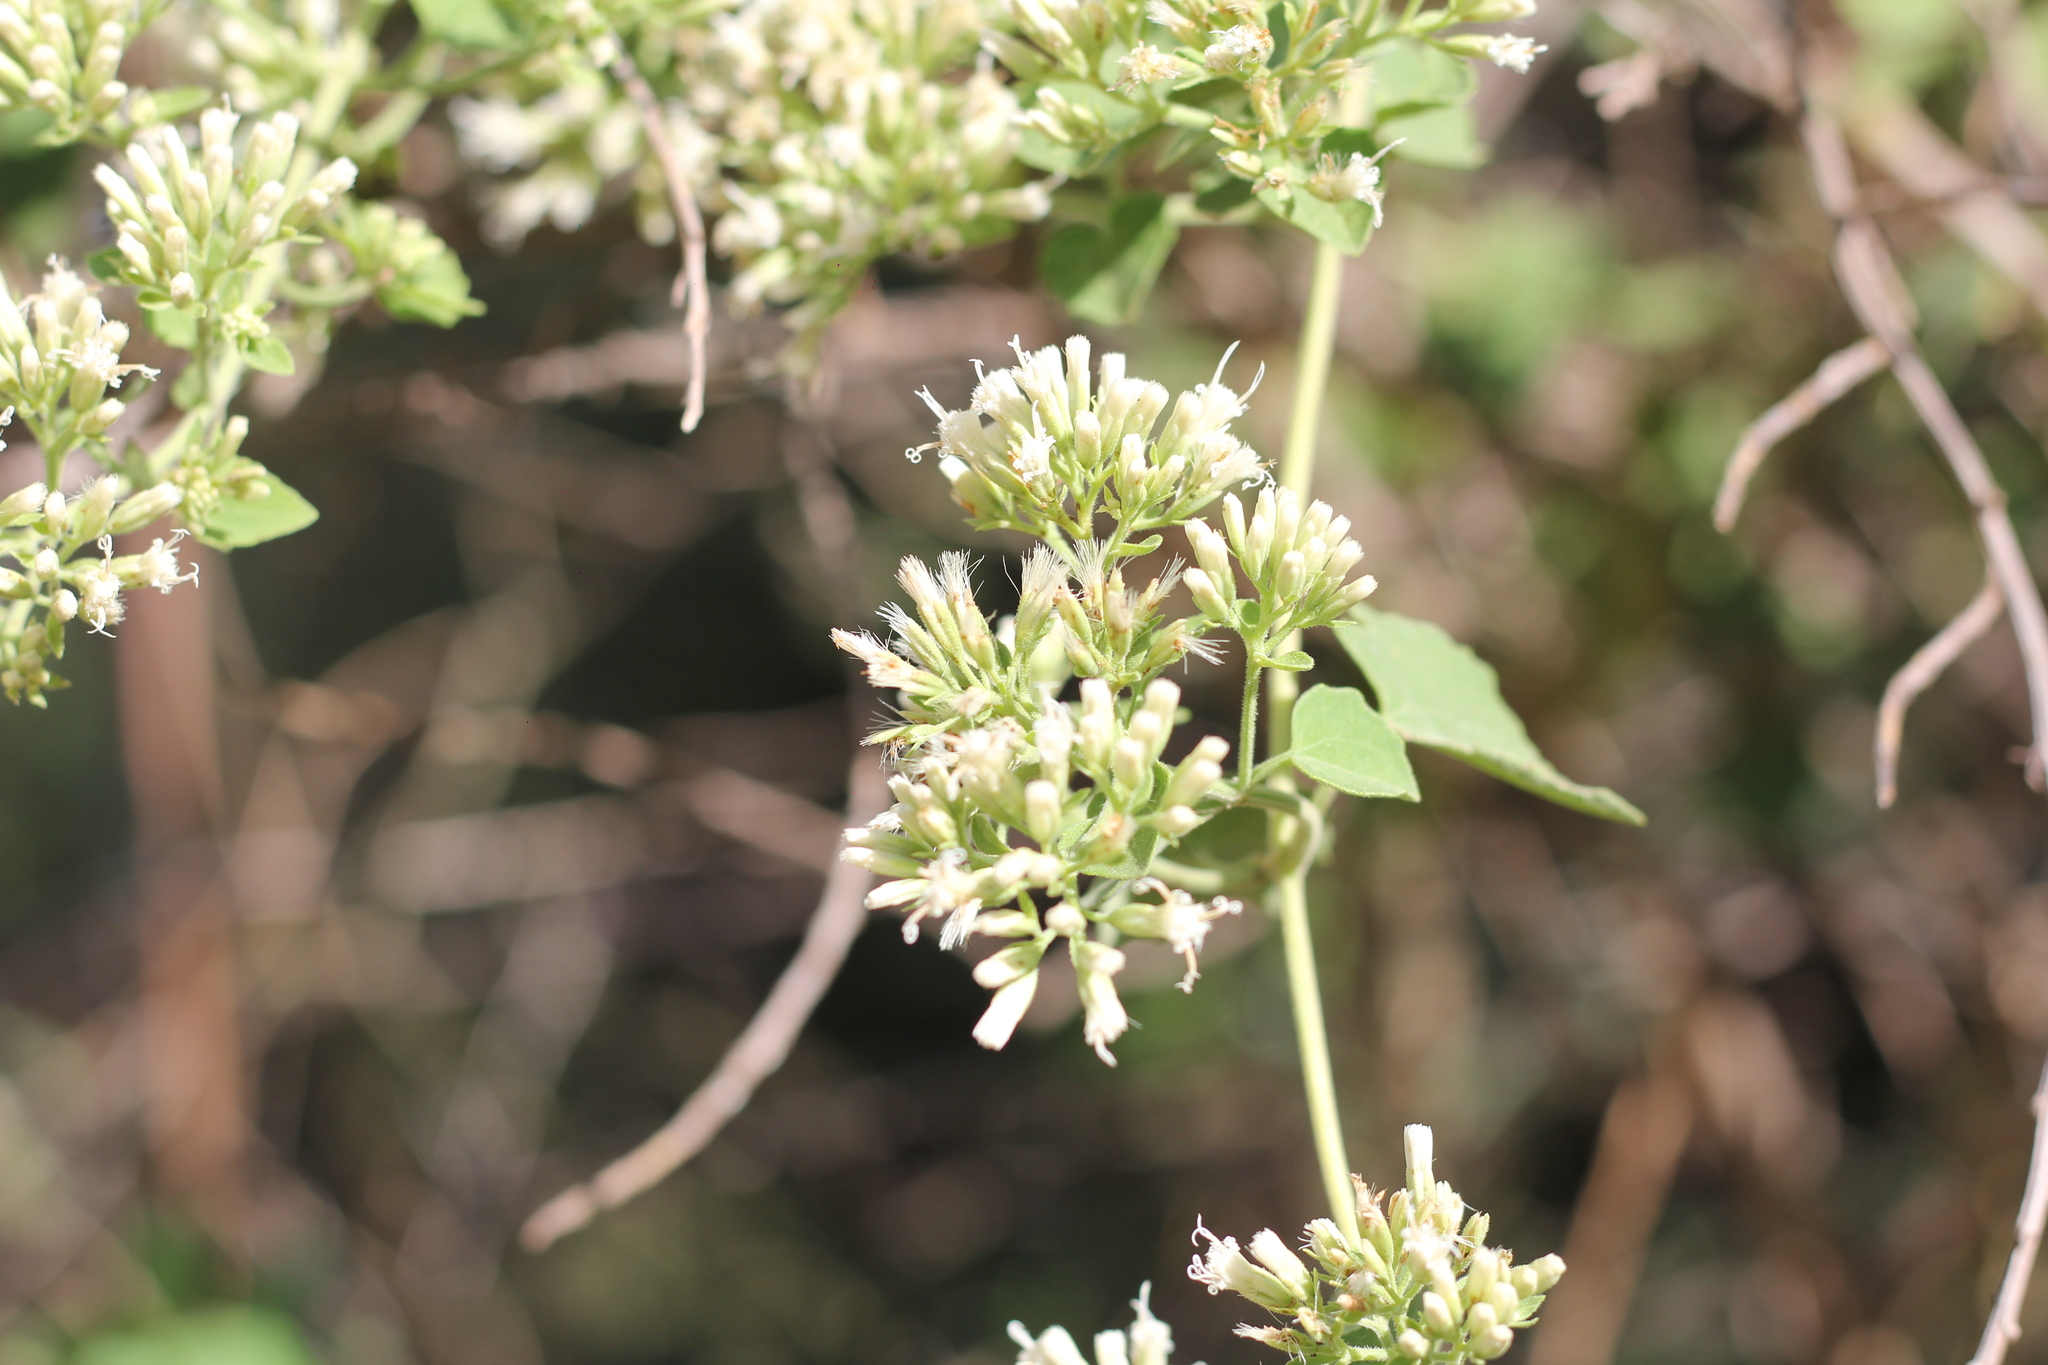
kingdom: Plantae
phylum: Tracheophyta
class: Magnoliopsida
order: Asterales
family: Asteraceae
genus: Mikania
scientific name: Mikania cordifolia
